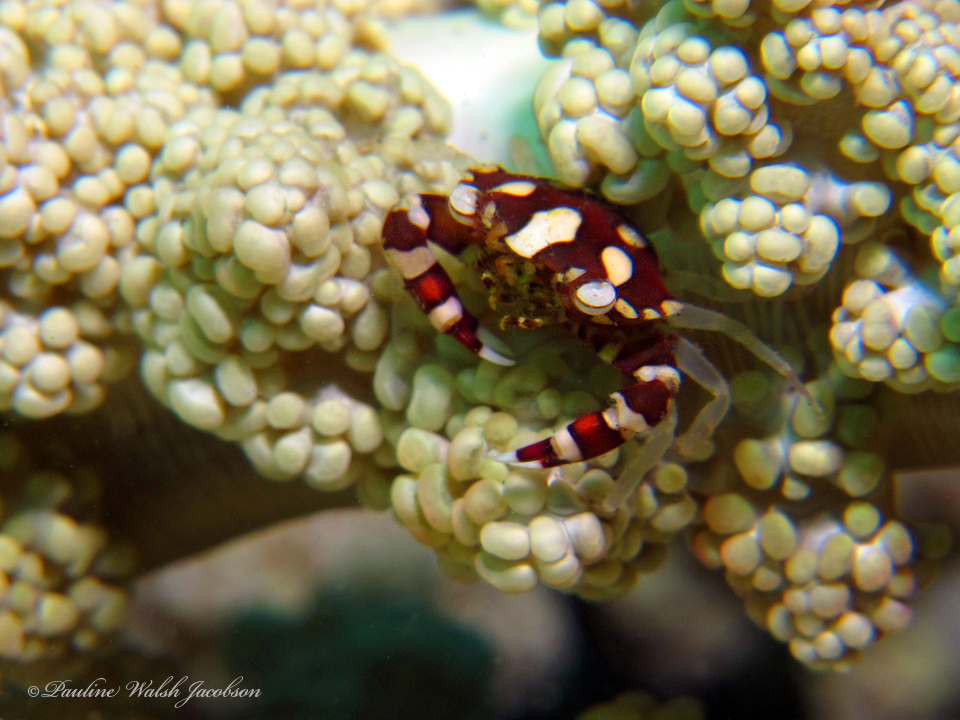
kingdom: Animalia
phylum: Arthropoda
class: Malacostraca
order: Decapoda
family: Portunidae
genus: Lissocarcinus
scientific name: Lissocarcinus laevis
